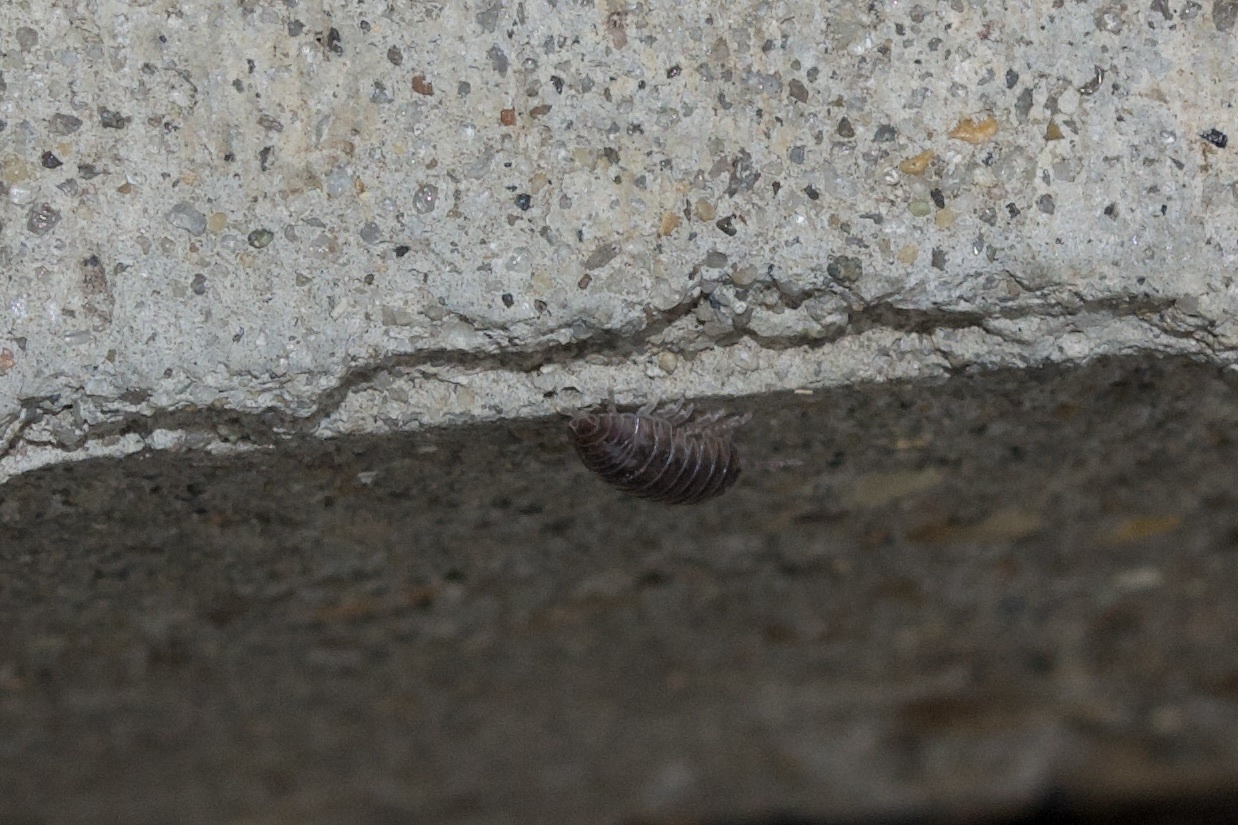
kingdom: Animalia
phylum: Arthropoda
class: Malacostraca
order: Isopoda
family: Armadillidiidae
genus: Armadillidium
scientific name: Armadillidium vulgare
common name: Common pill woodlouse
